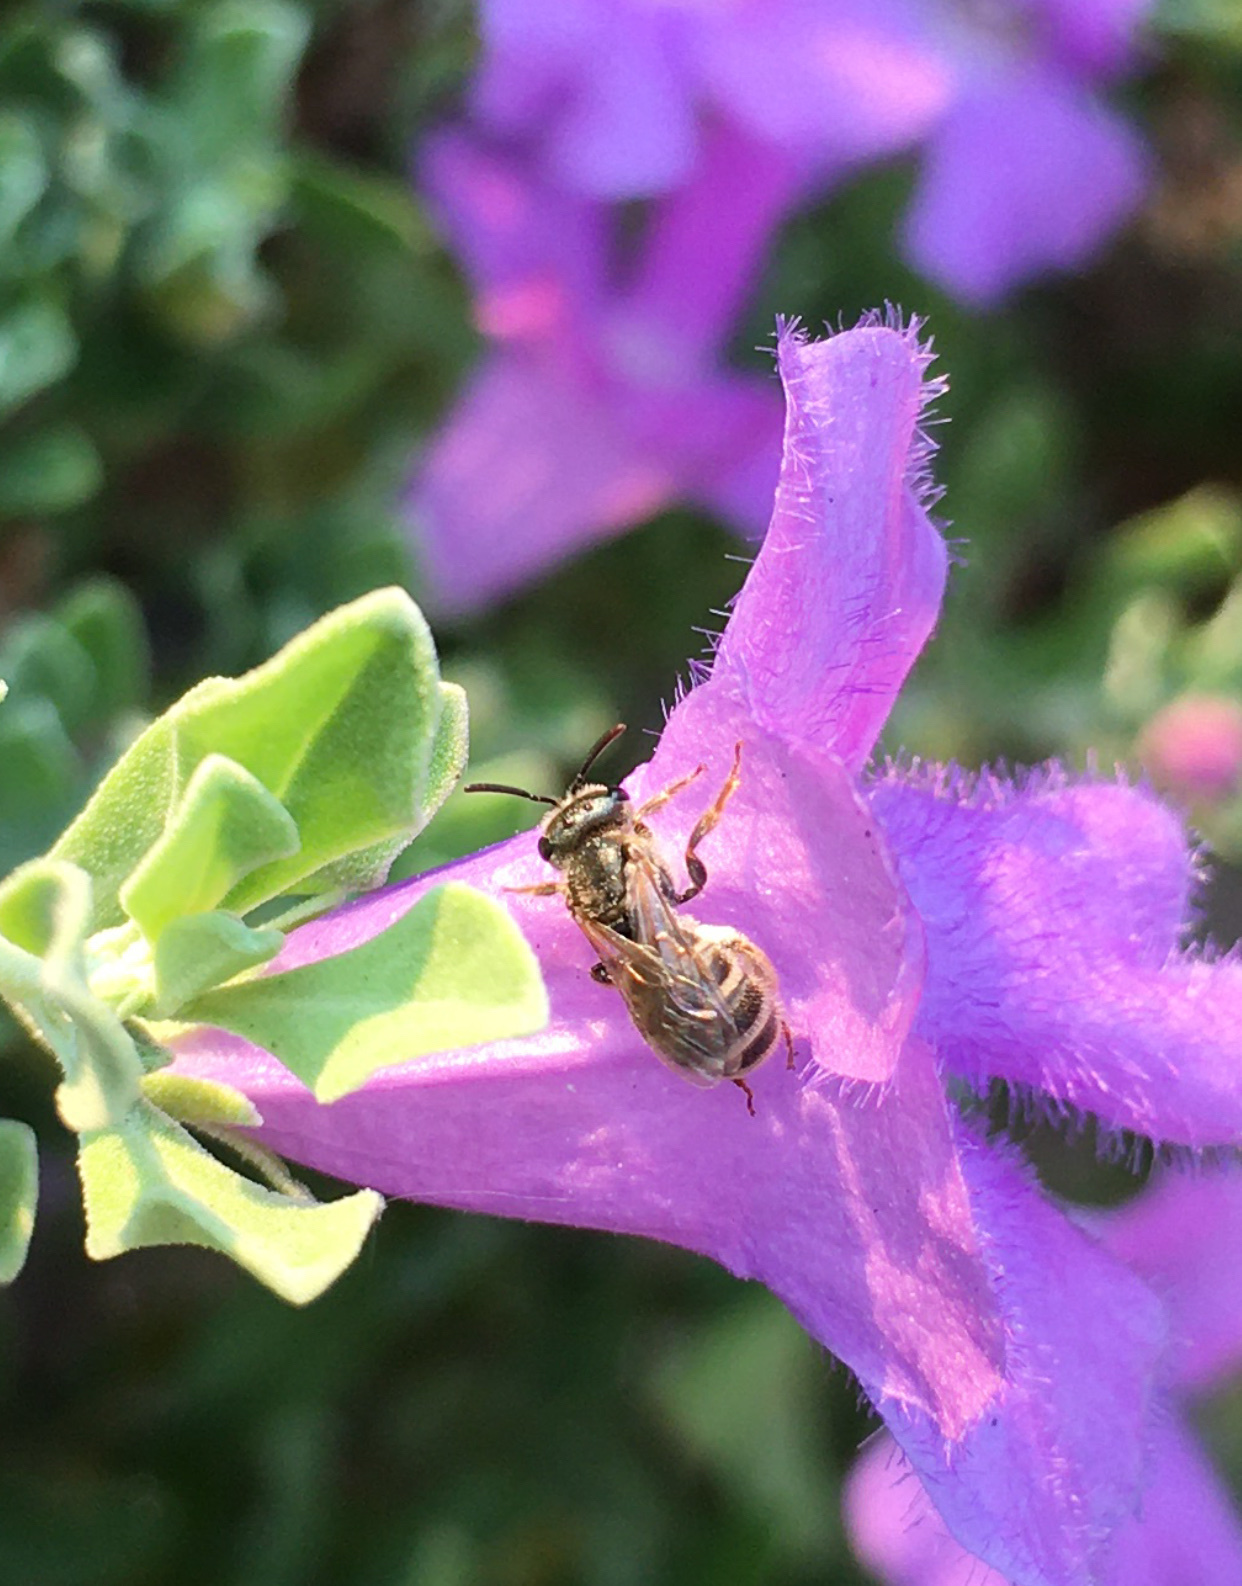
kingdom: Animalia
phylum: Arthropoda
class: Insecta
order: Hymenoptera
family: Halictidae
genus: Halictus
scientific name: Halictus tripartitus
